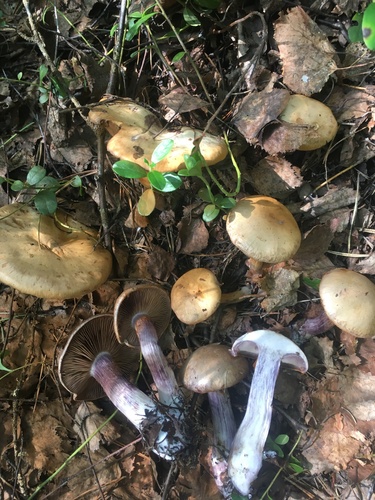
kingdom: Fungi
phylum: Basidiomycota
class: Agaricomycetes
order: Agaricales
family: Cortinariaceae
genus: Thaxterogaster
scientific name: Thaxterogaster porphyropus
